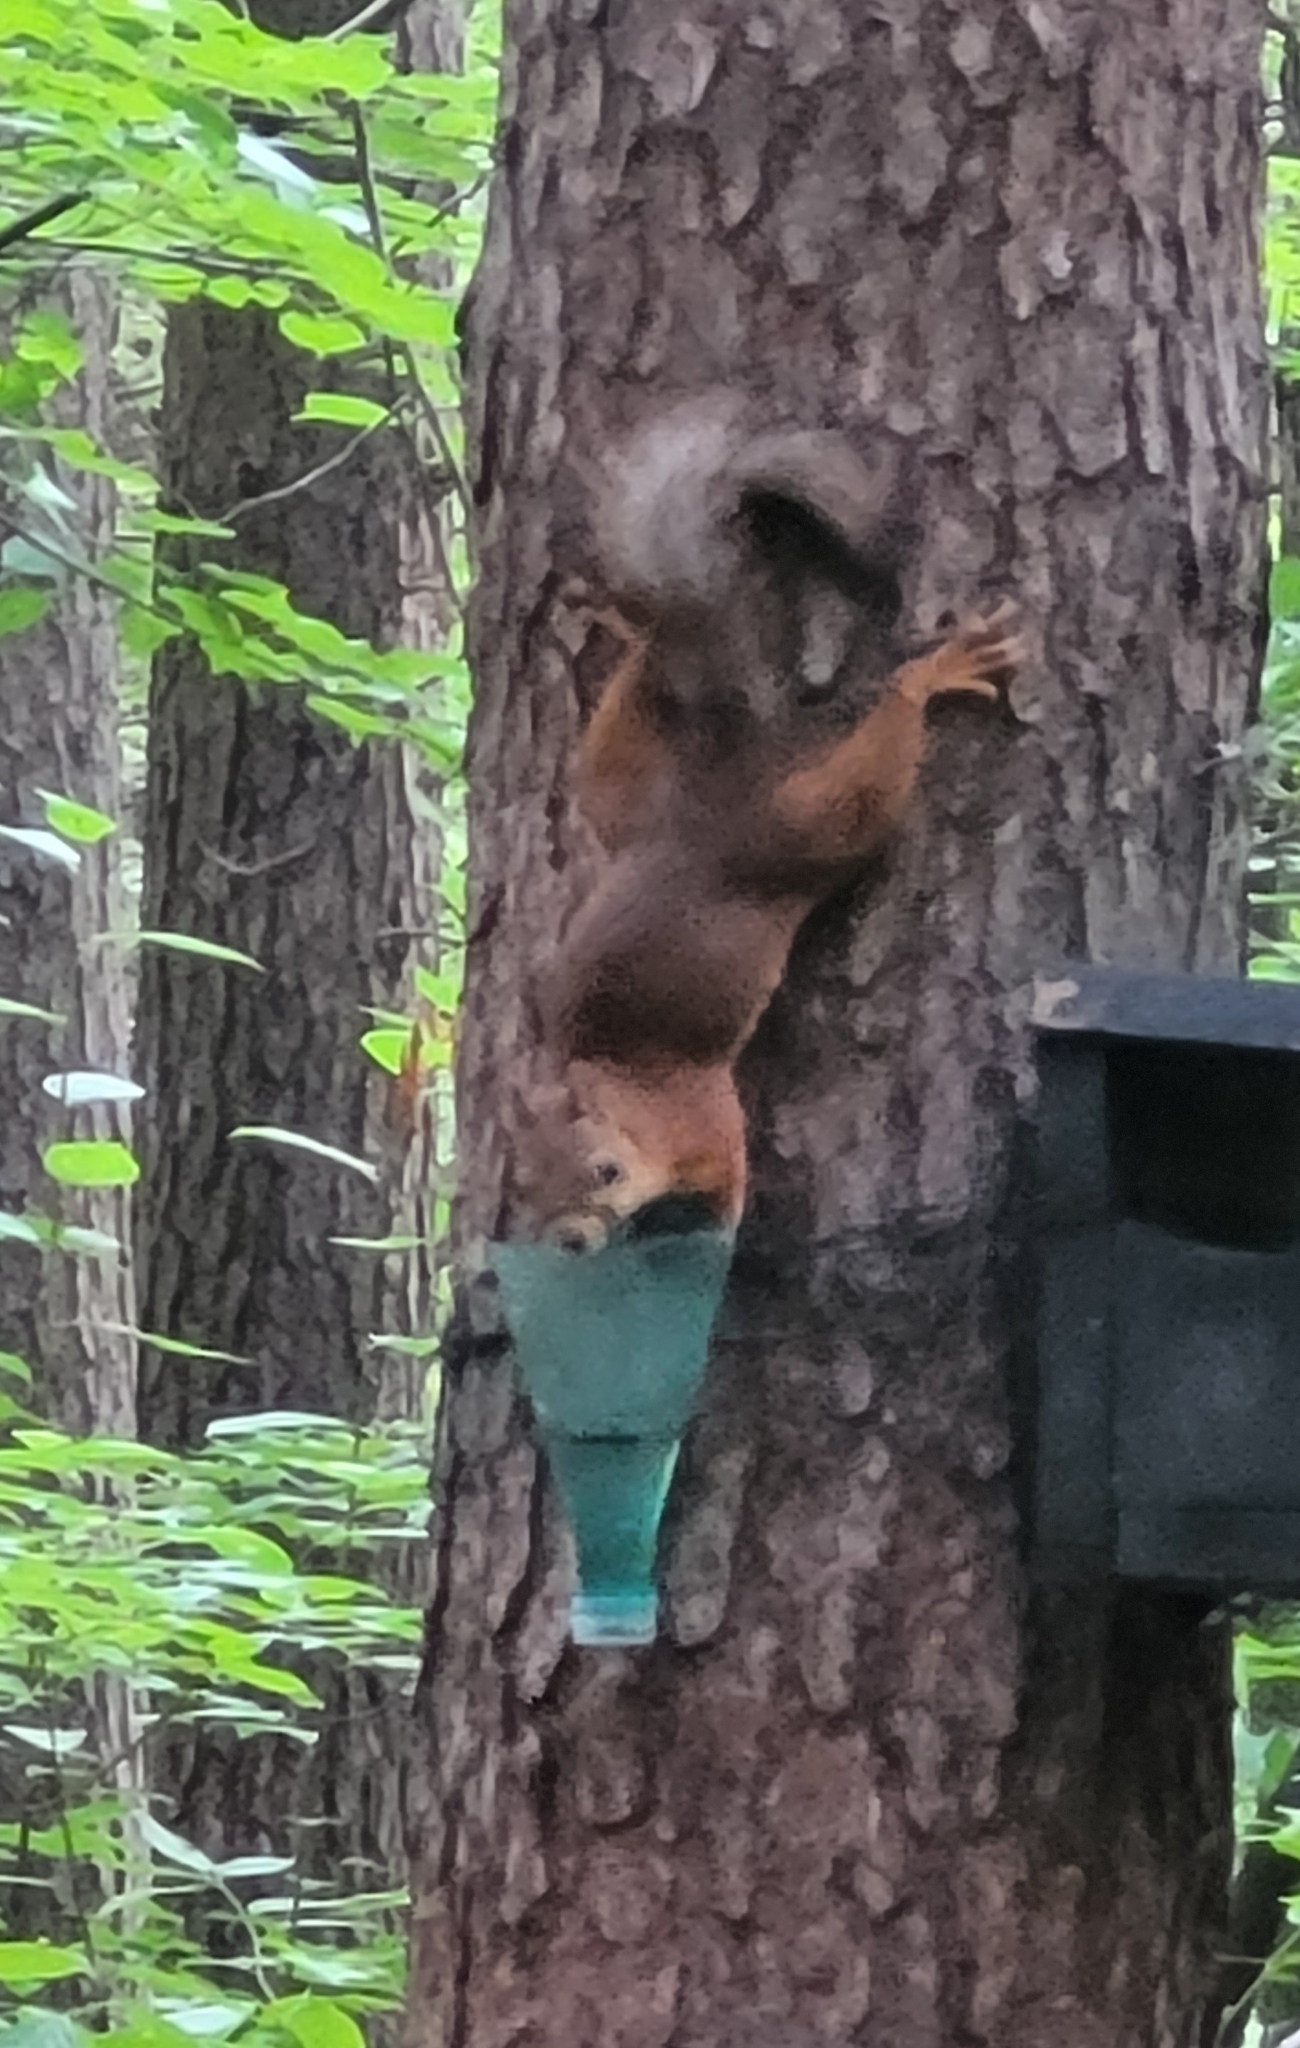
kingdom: Animalia
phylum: Chordata
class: Mammalia
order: Rodentia
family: Sciuridae
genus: Sciurus
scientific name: Sciurus vulgaris
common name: Eurasian red squirrel
